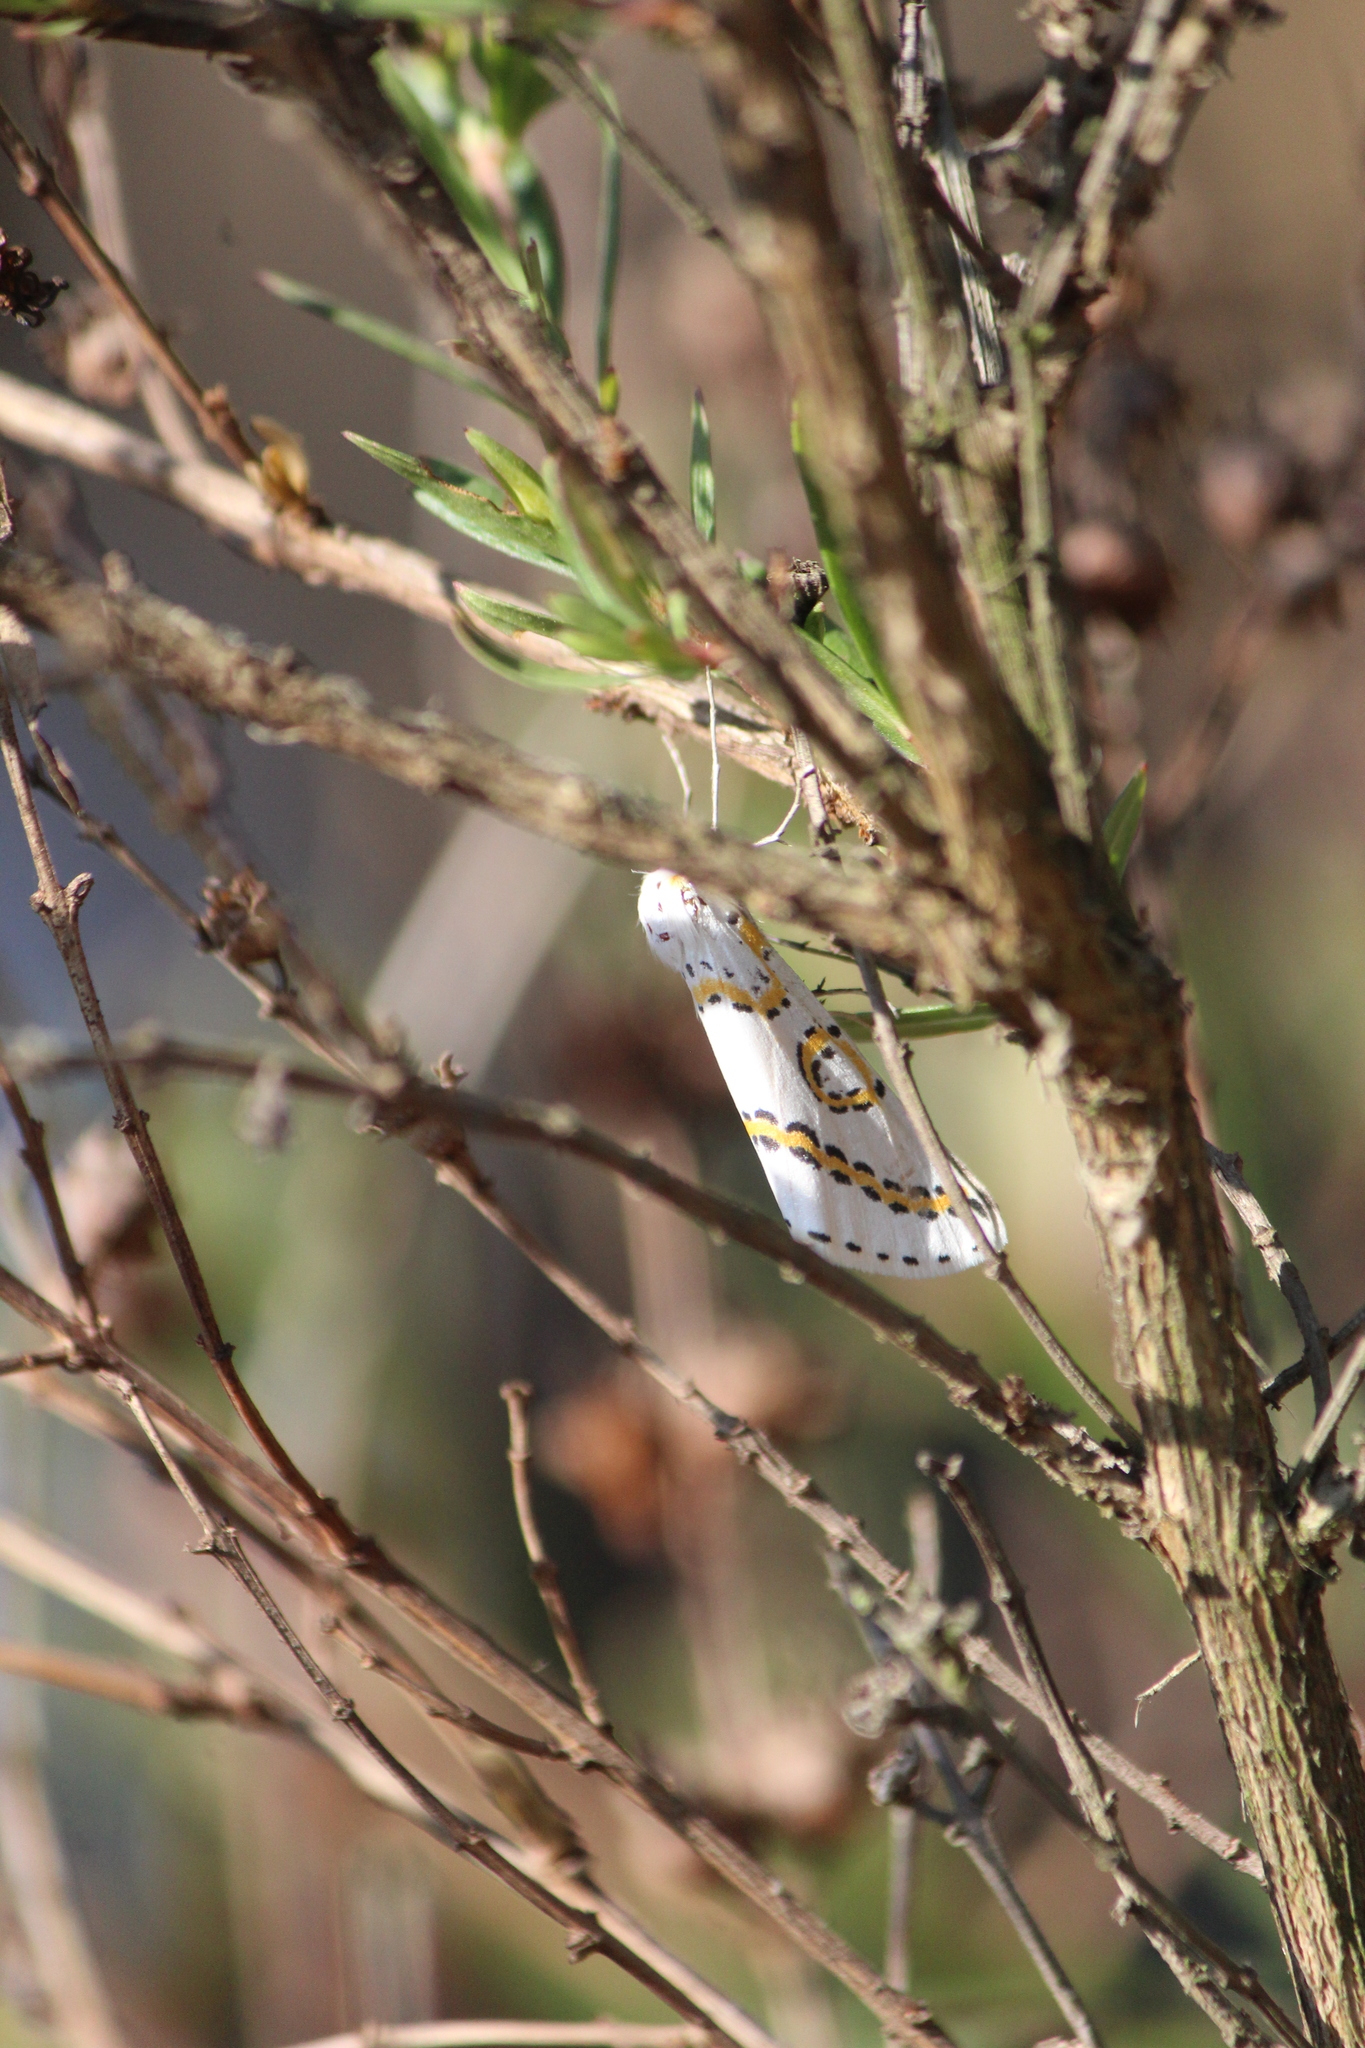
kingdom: Animalia
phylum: Arthropoda
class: Insecta
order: Lepidoptera
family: Geometridae
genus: Philtraea
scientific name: Philtraea mexicana
